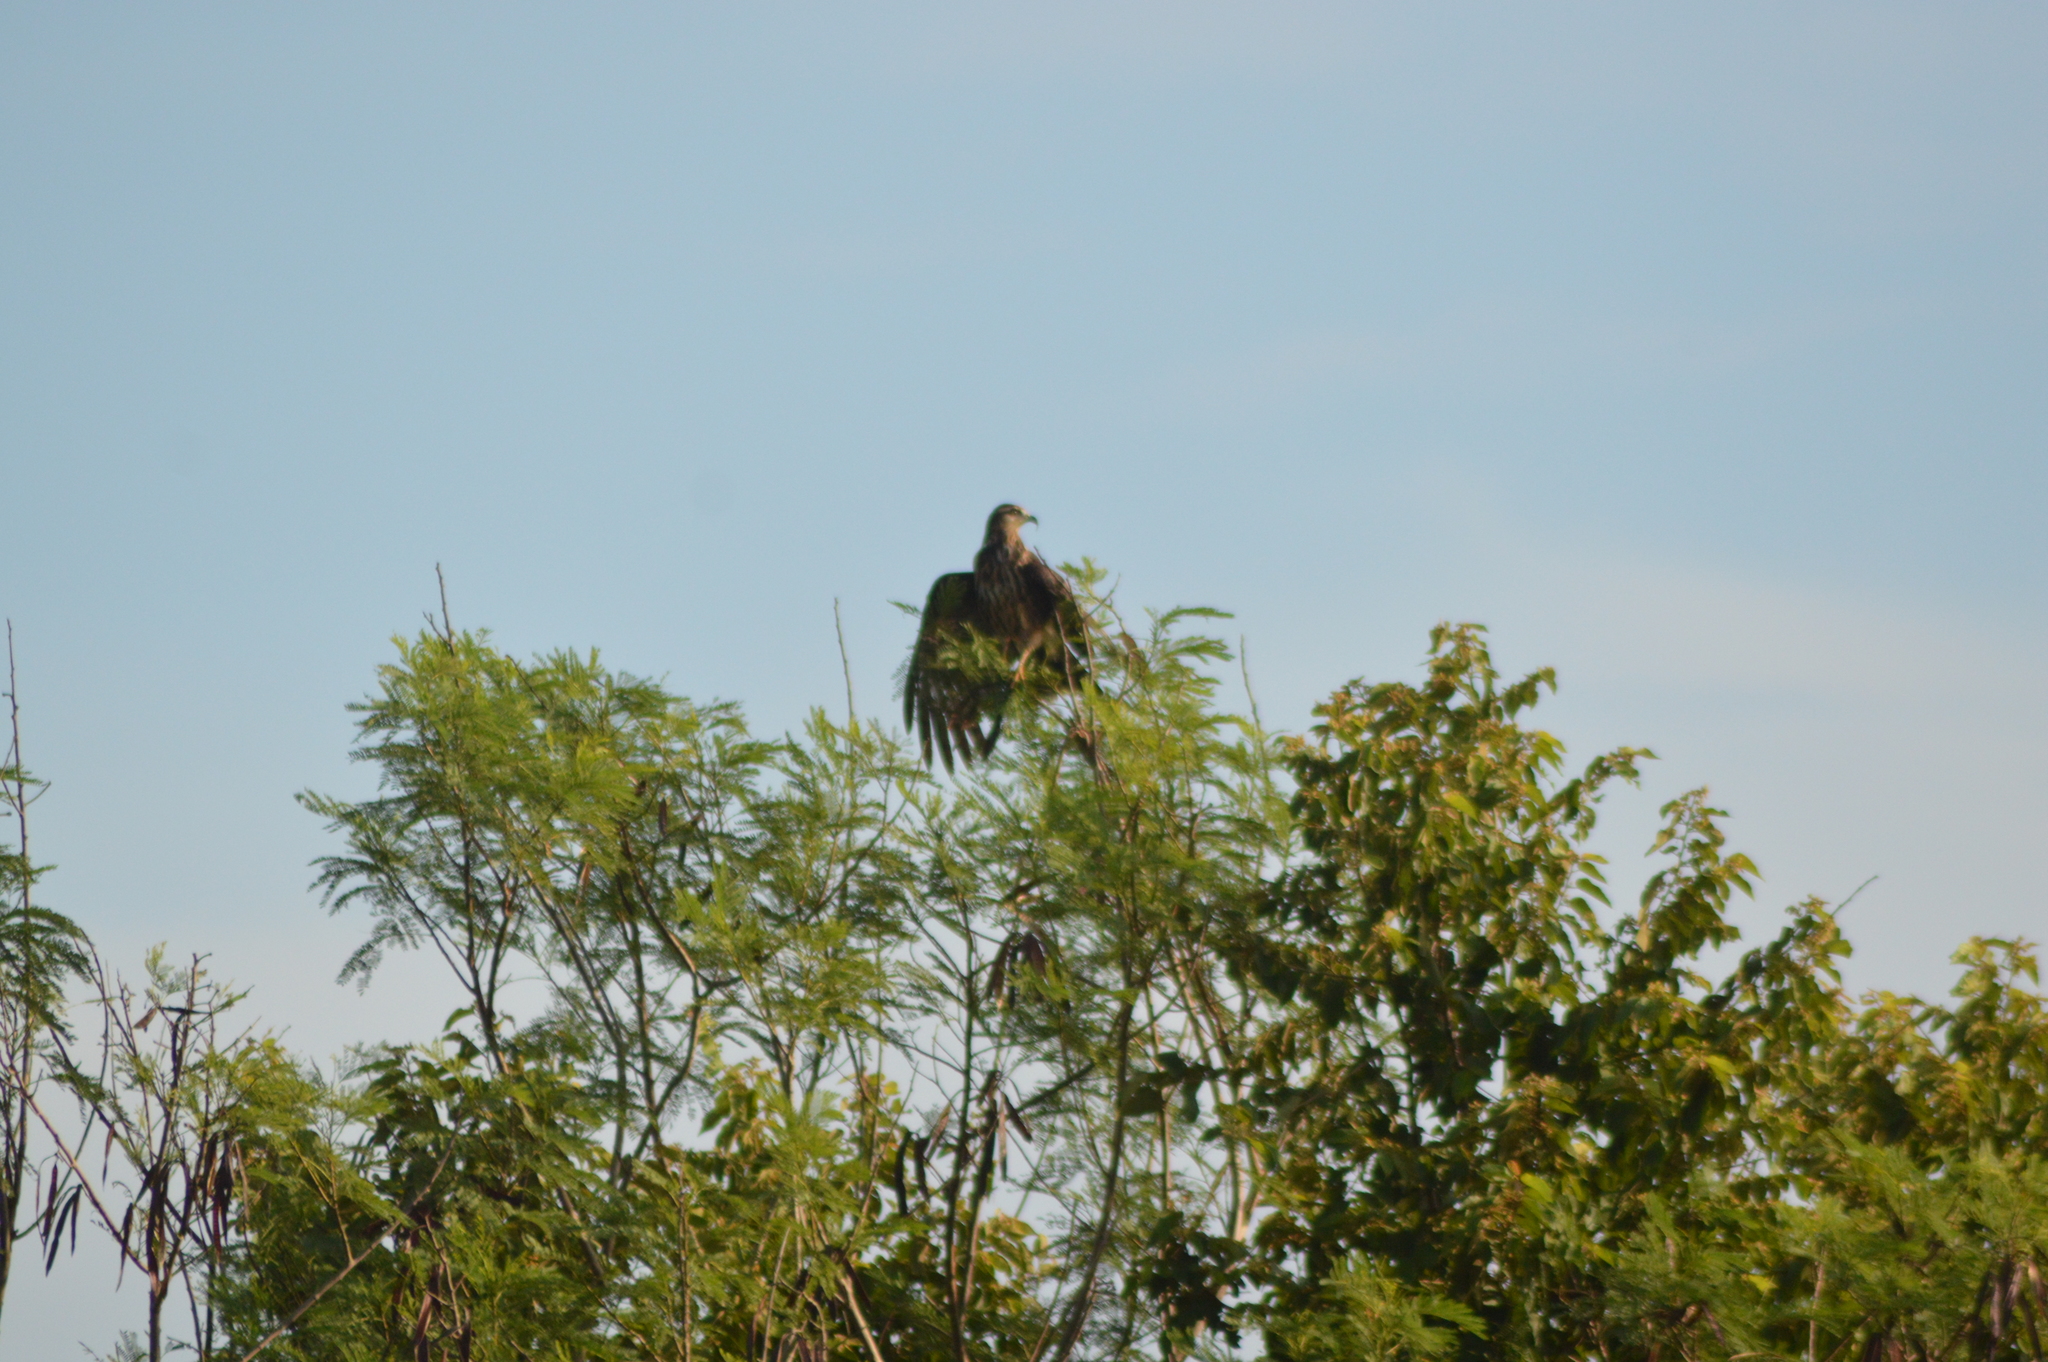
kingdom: Animalia
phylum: Chordata
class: Aves
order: Accipitriformes
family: Accipitridae
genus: Rostrhamus
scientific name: Rostrhamus sociabilis
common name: Snail kite
